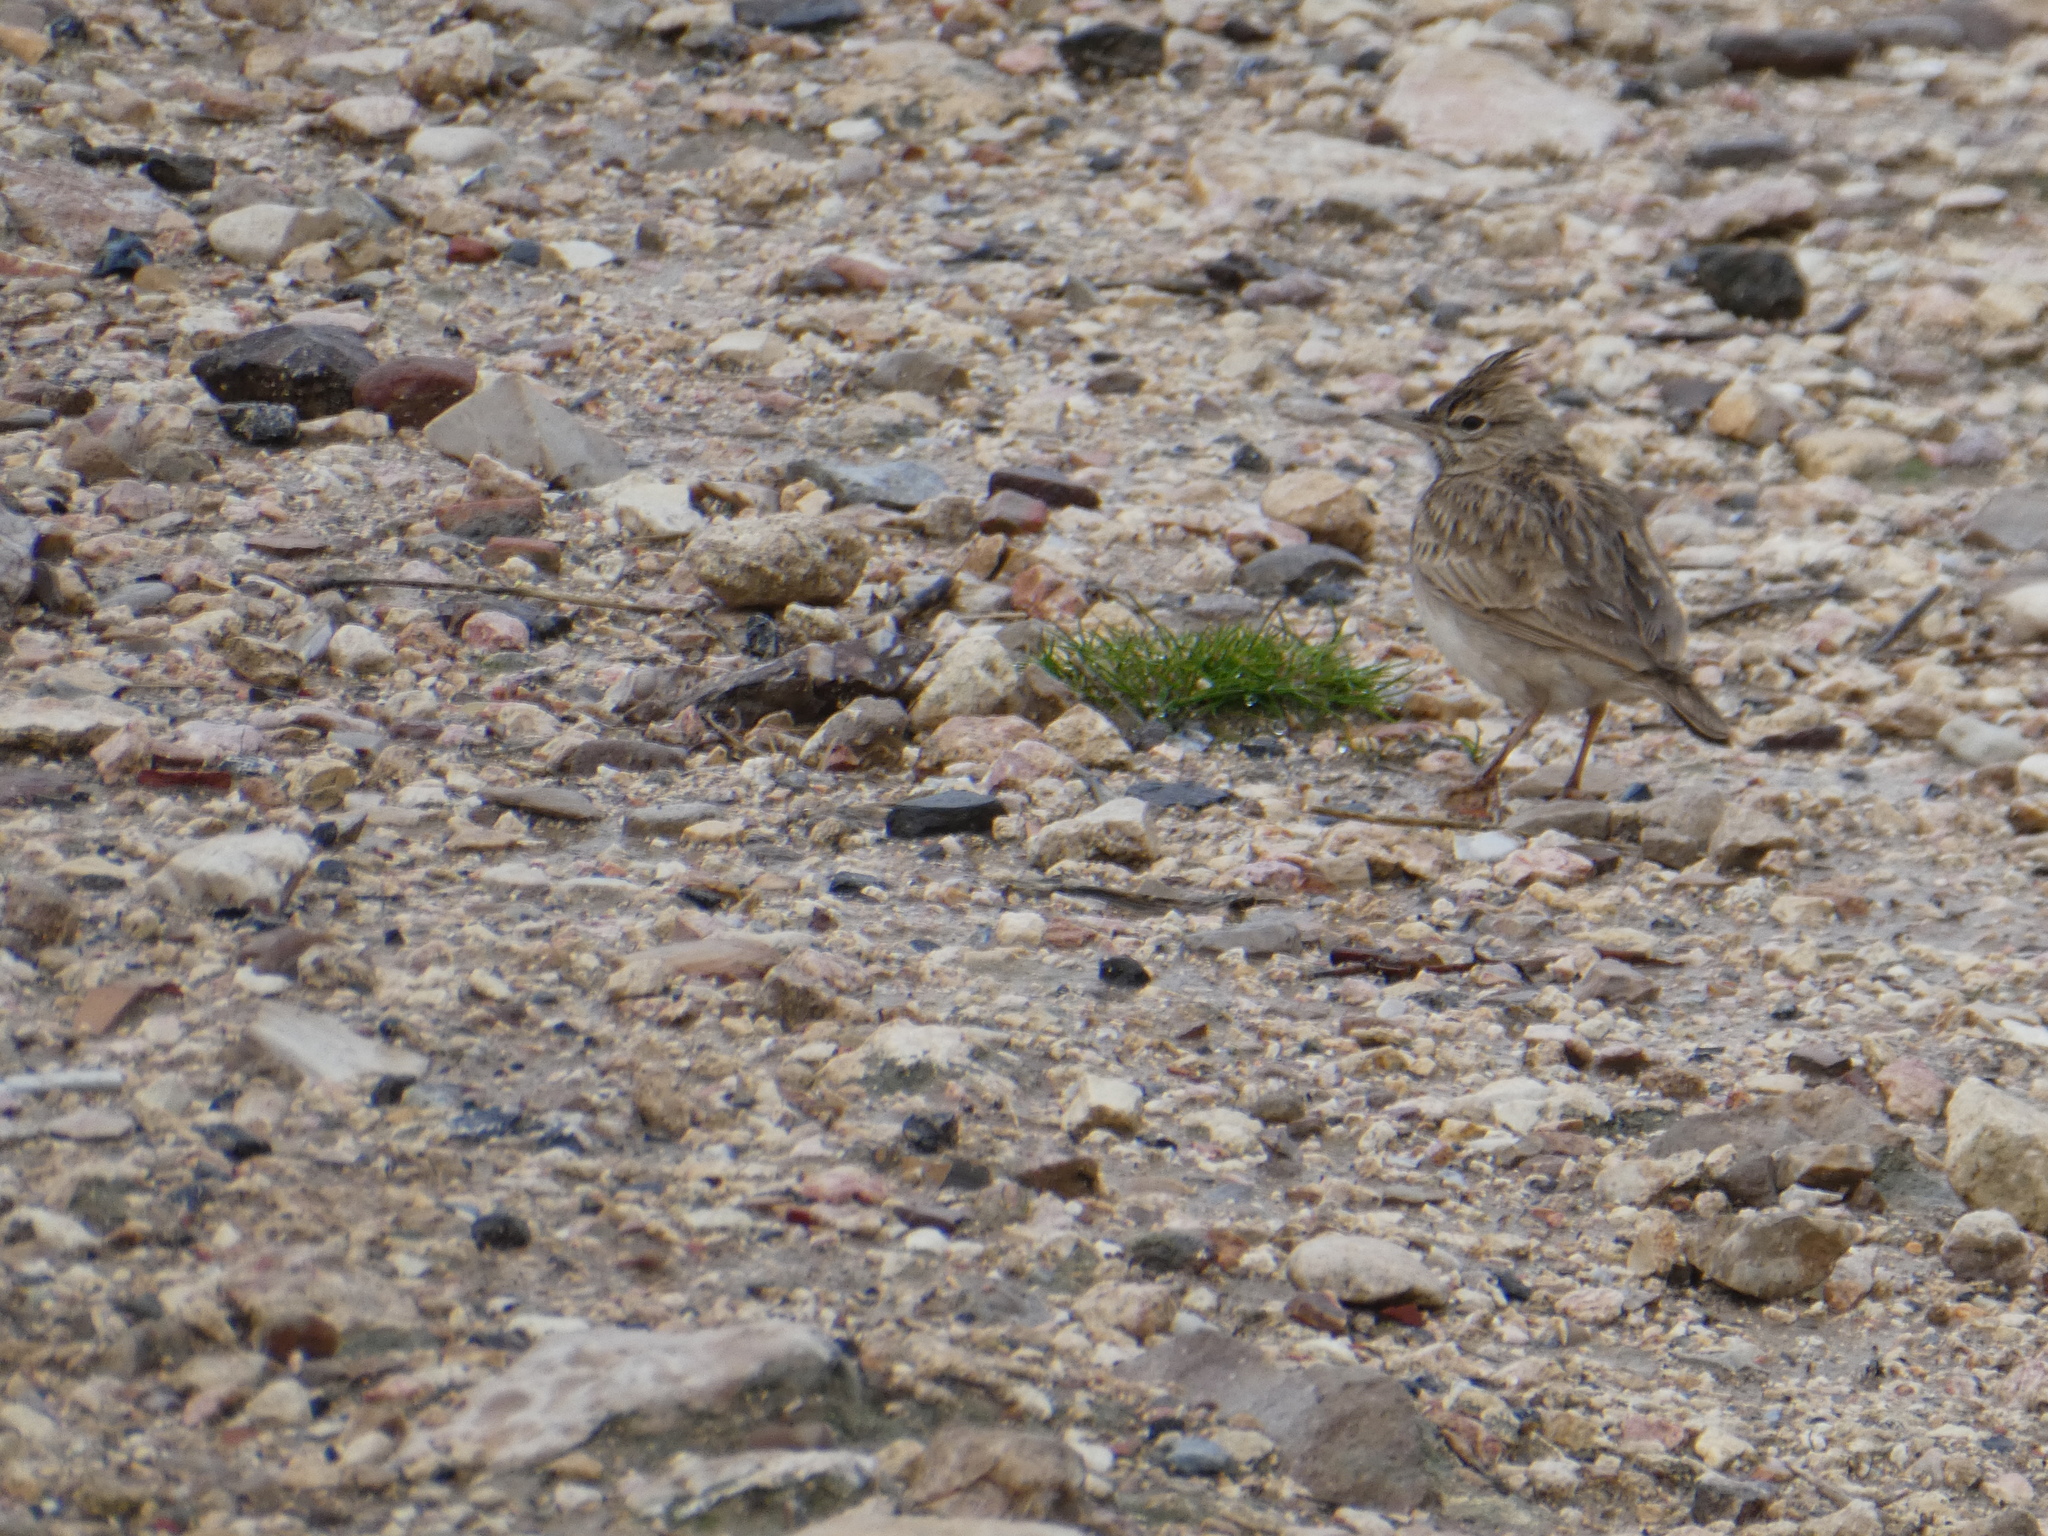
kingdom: Animalia
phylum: Chordata
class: Aves
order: Passeriformes
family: Alaudidae
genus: Galerida
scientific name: Galerida cristata
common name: Crested lark
